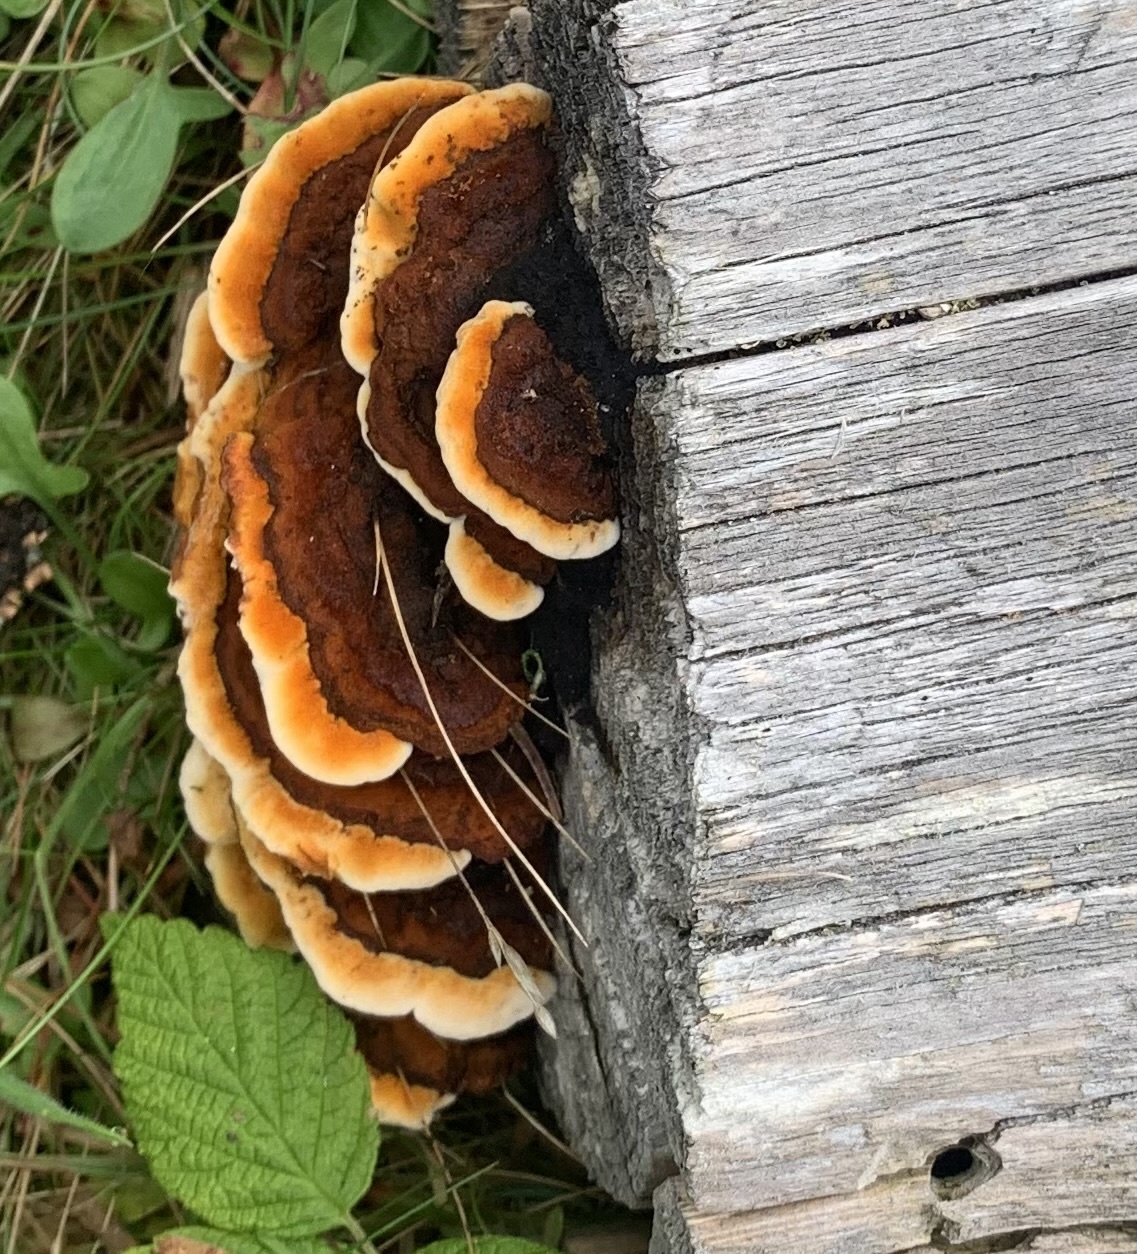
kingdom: Fungi
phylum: Basidiomycota
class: Agaricomycetes
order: Gloeophyllales
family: Gloeophyllaceae
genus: Gloeophyllum
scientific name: Gloeophyllum sepiarium
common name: Conifer mazegill
